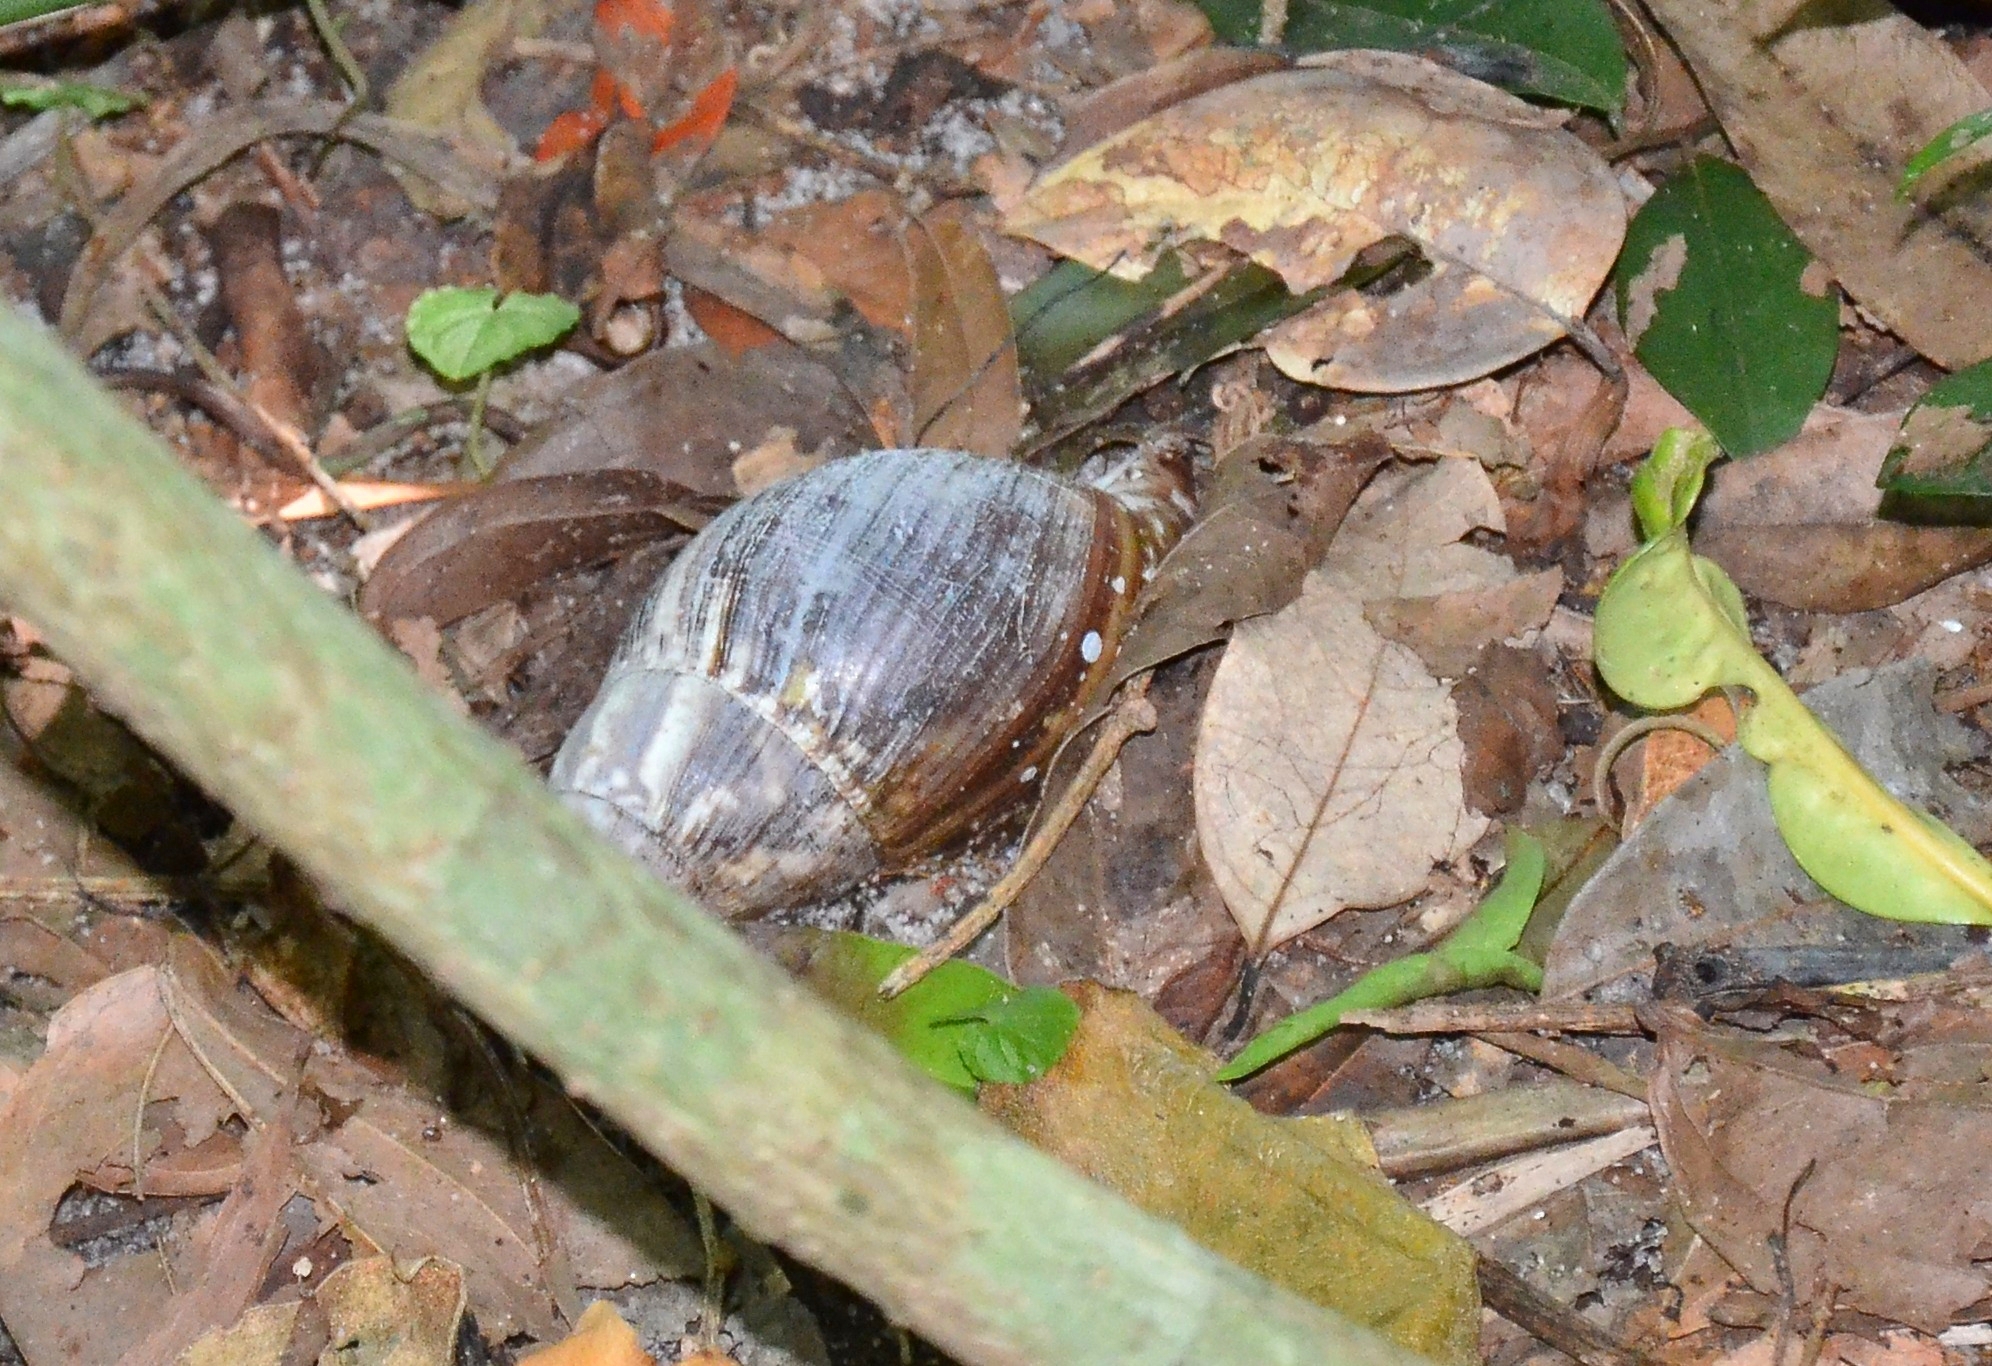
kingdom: Animalia
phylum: Mollusca
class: Gastropoda
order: Stylommatophora
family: Achatinidae
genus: Lissachatina
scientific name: Lissachatina fulica
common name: Giant african snail
